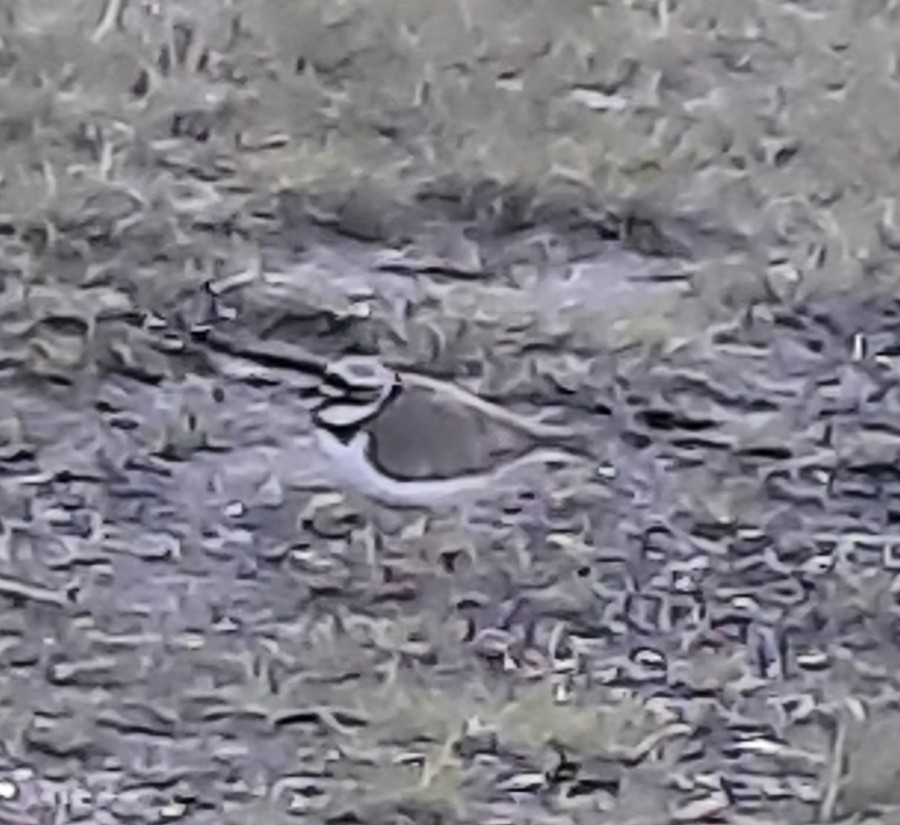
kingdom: Animalia
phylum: Chordata
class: Aves
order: Charadriiformes
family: Charadriidae
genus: Charadrius
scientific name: Charadrius dubius
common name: Little ringed plover
